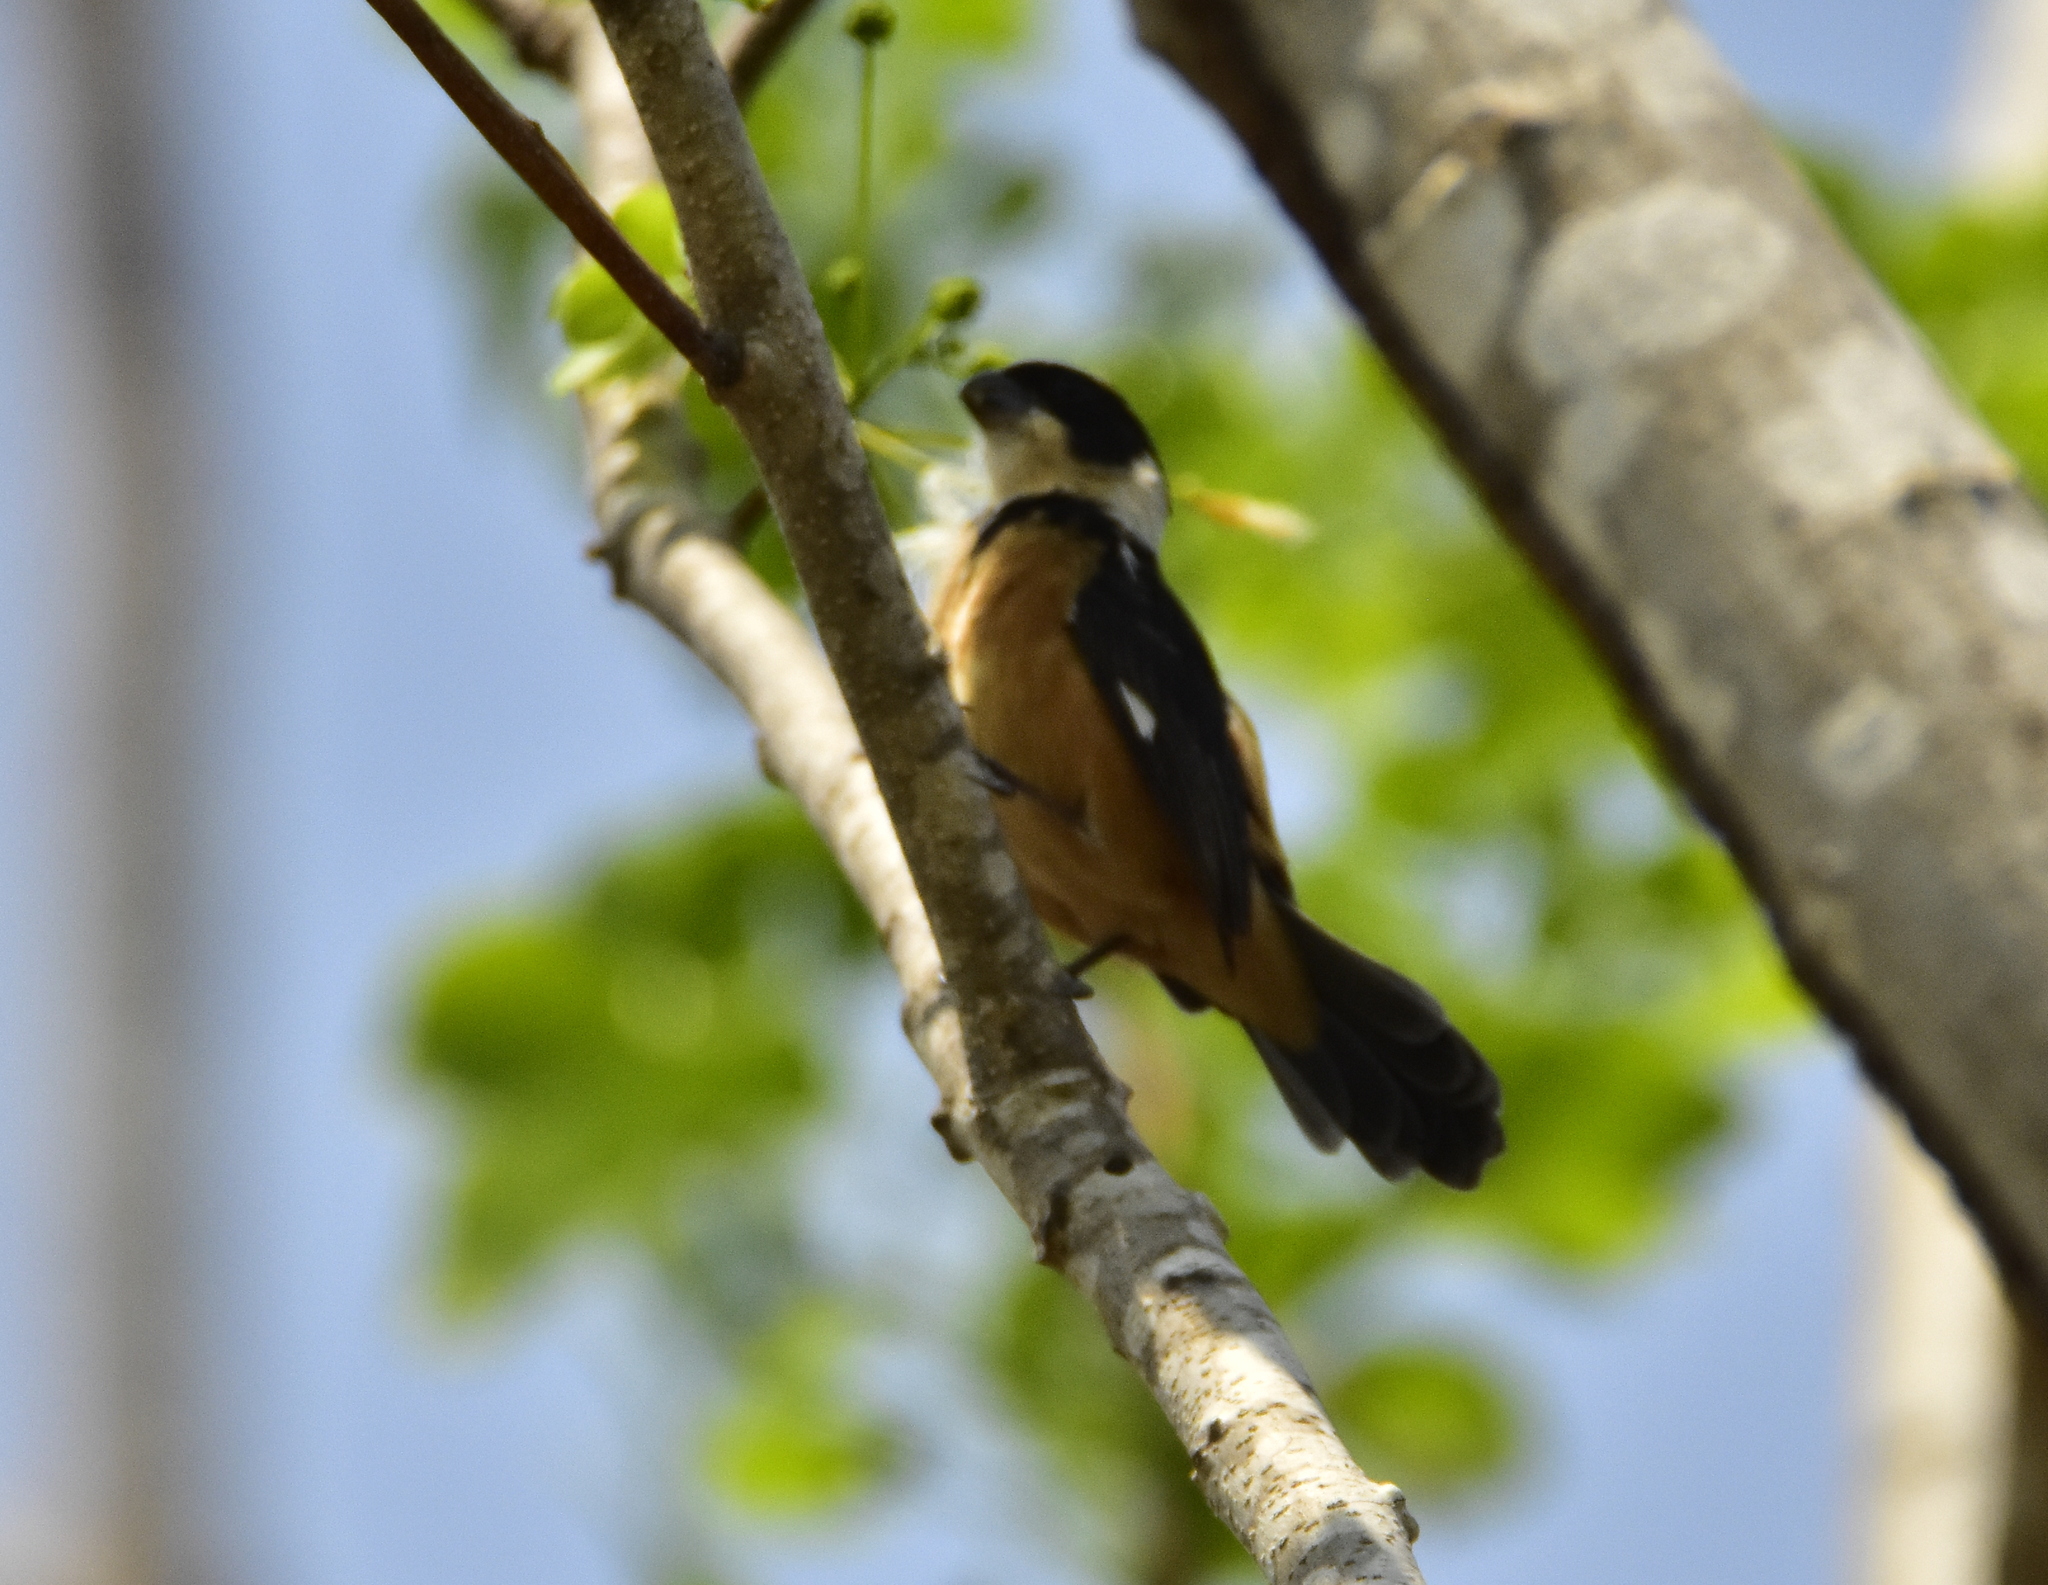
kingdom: Animalia
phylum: Chordata
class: Aves
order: Passeriformes
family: Thraupidae
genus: Sporophila
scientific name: Sporophila torqueola
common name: White-collared seedeater
